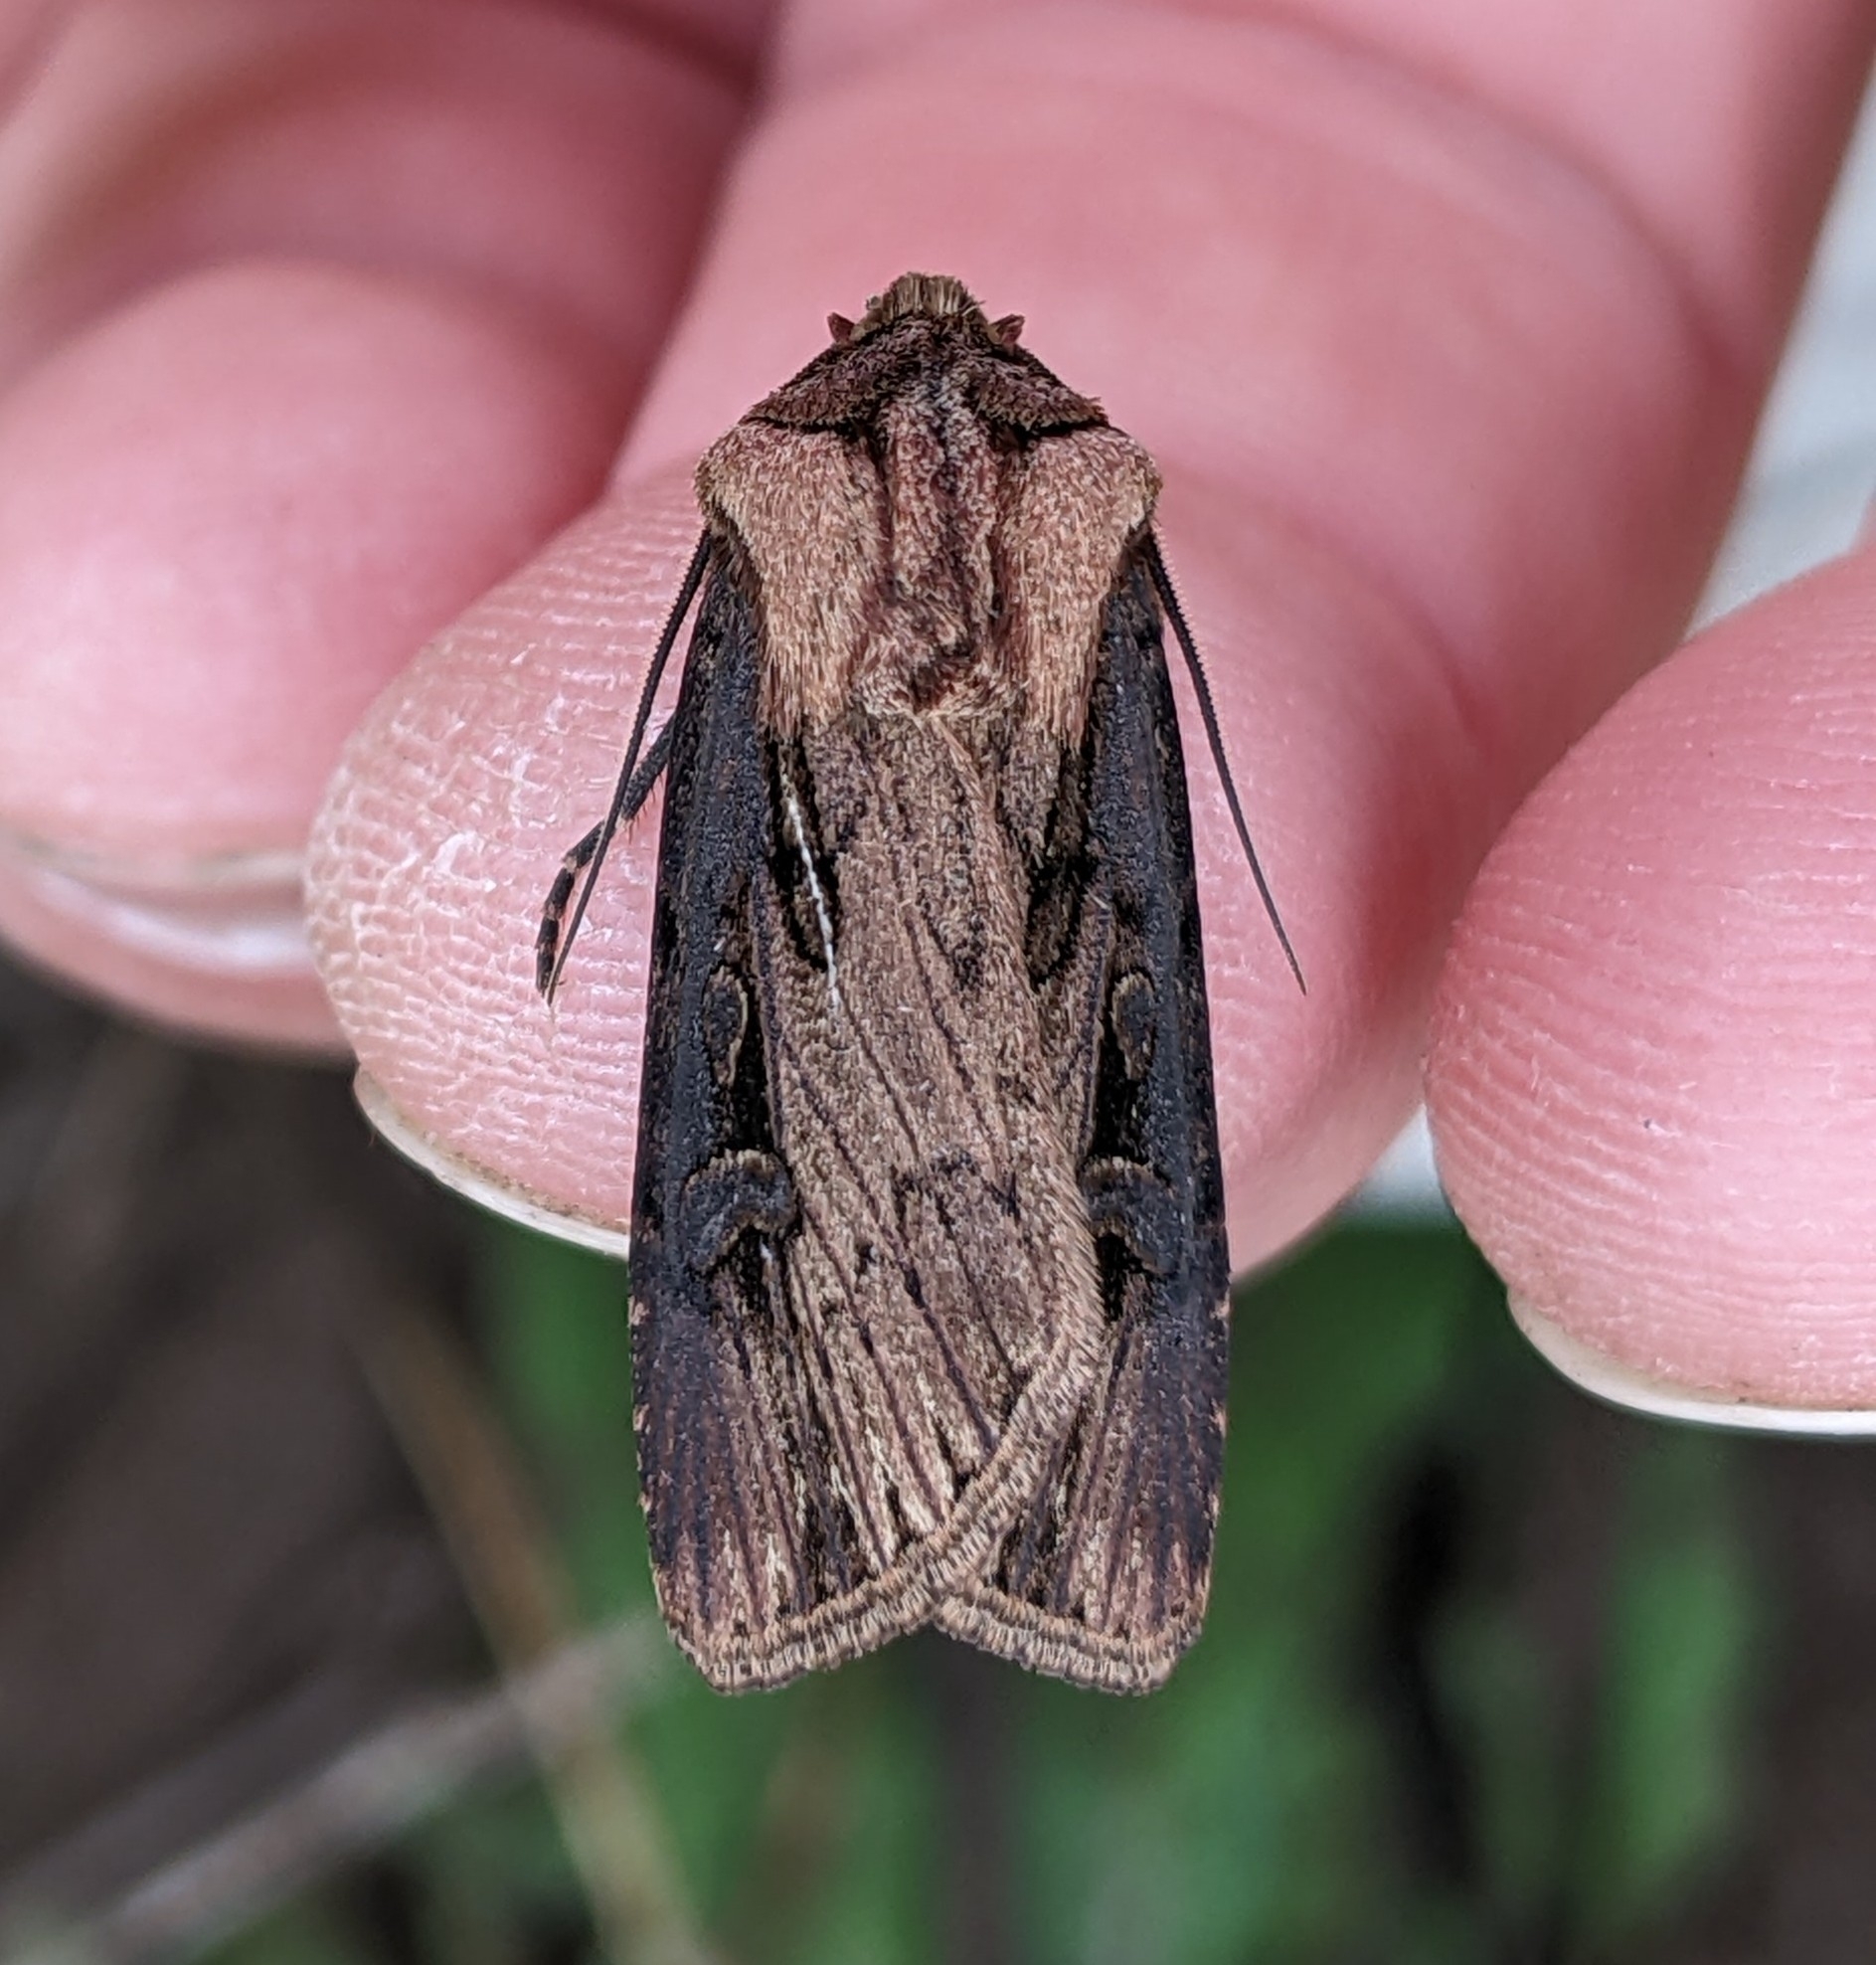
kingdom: Animalia
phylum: Arthropoda
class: Insecta
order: Lepidoptera
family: Noctuidae
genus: Agrotis
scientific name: Agrotis antica
